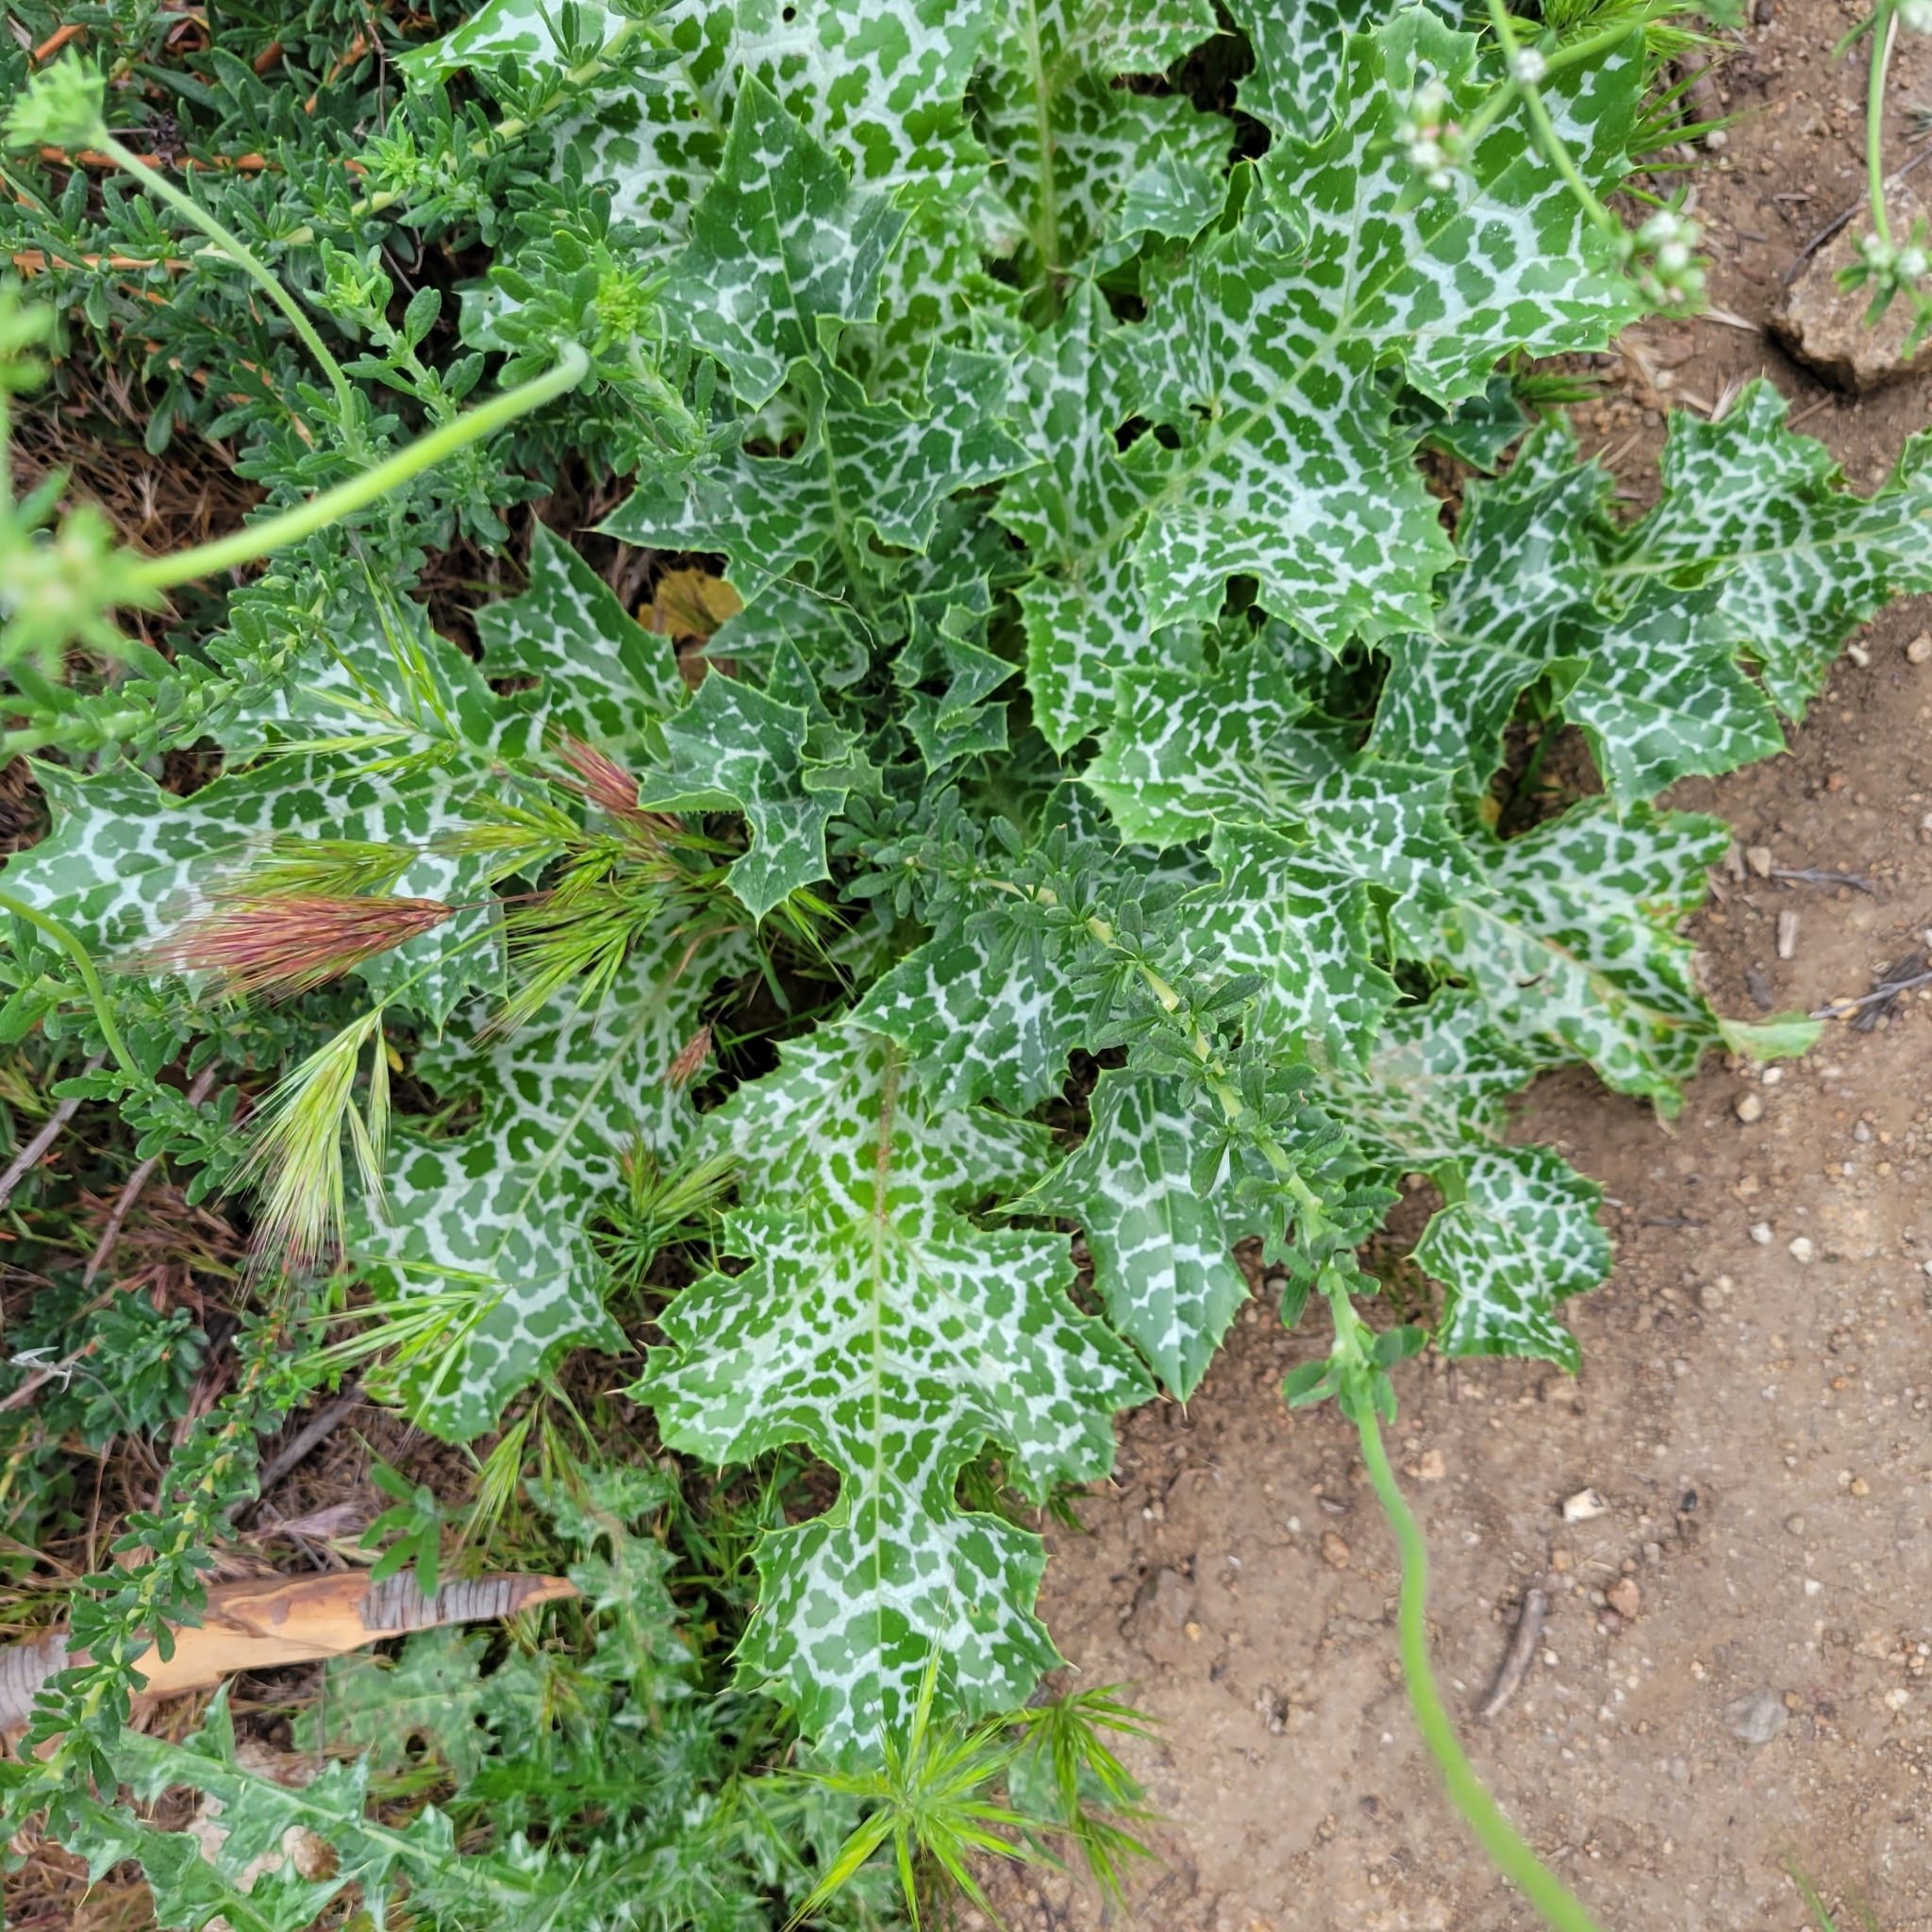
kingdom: Plantae
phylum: Tracheophyta
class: Magnoliopsida
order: Asterales
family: Asteraceae
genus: Silybum
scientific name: Silybum marianum
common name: Milk thistle
